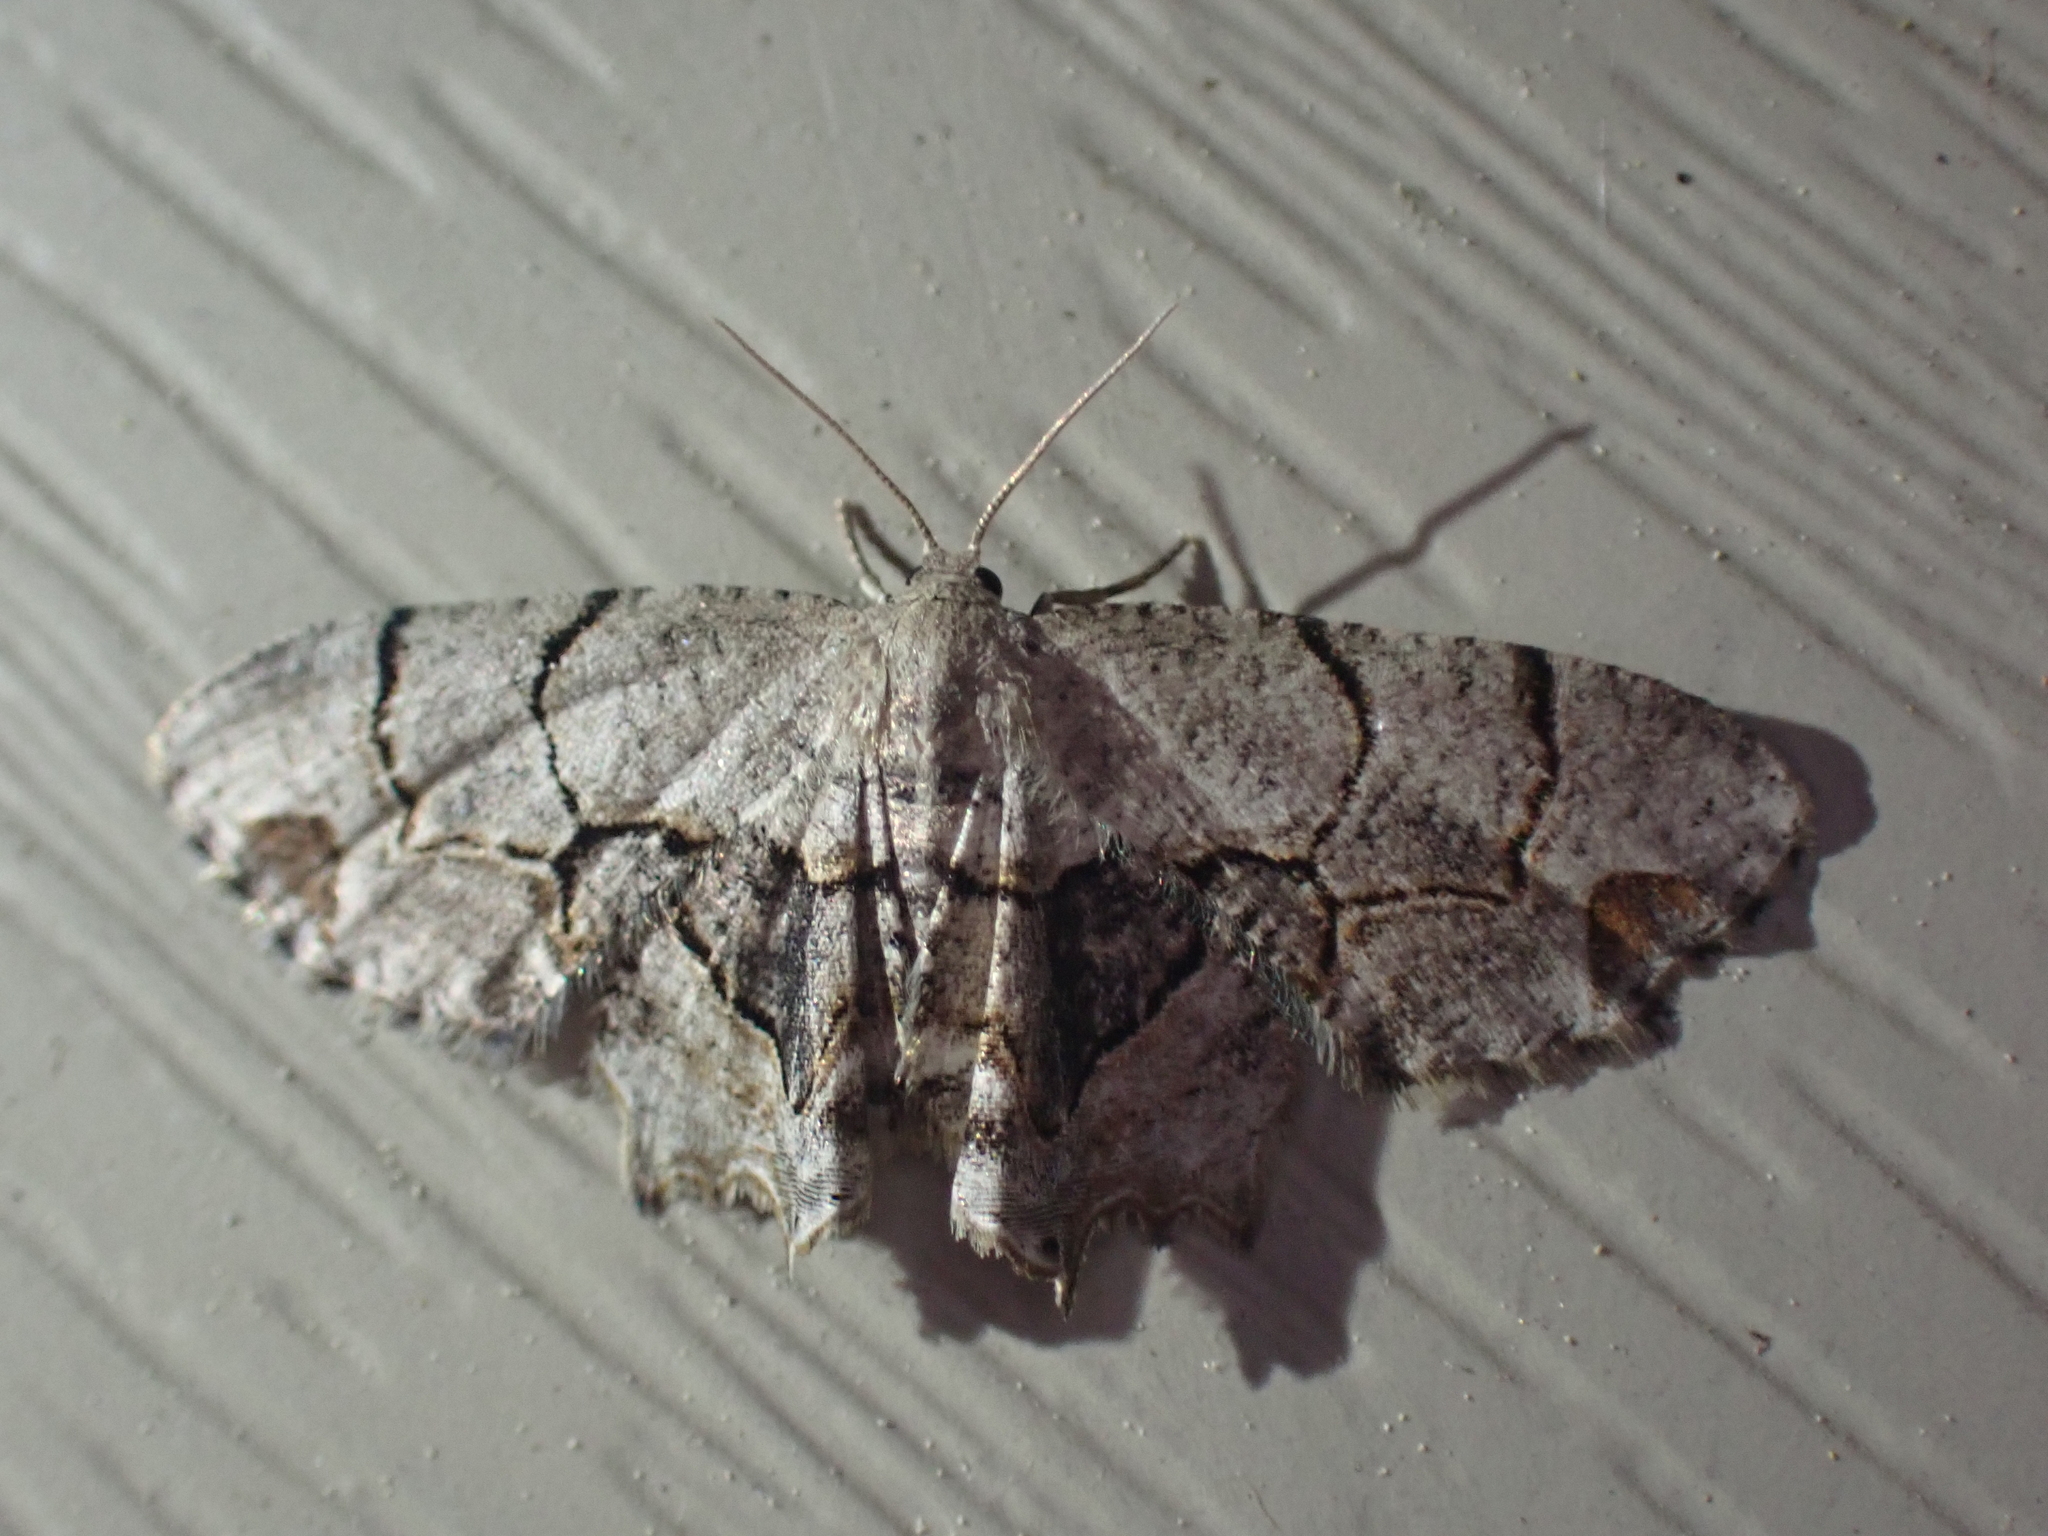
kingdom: Animalia
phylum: Arthropoda
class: Insecta
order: Lepidoptera
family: Uraniidae
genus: Epiplema
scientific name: Epiplema Callizzia amorata
